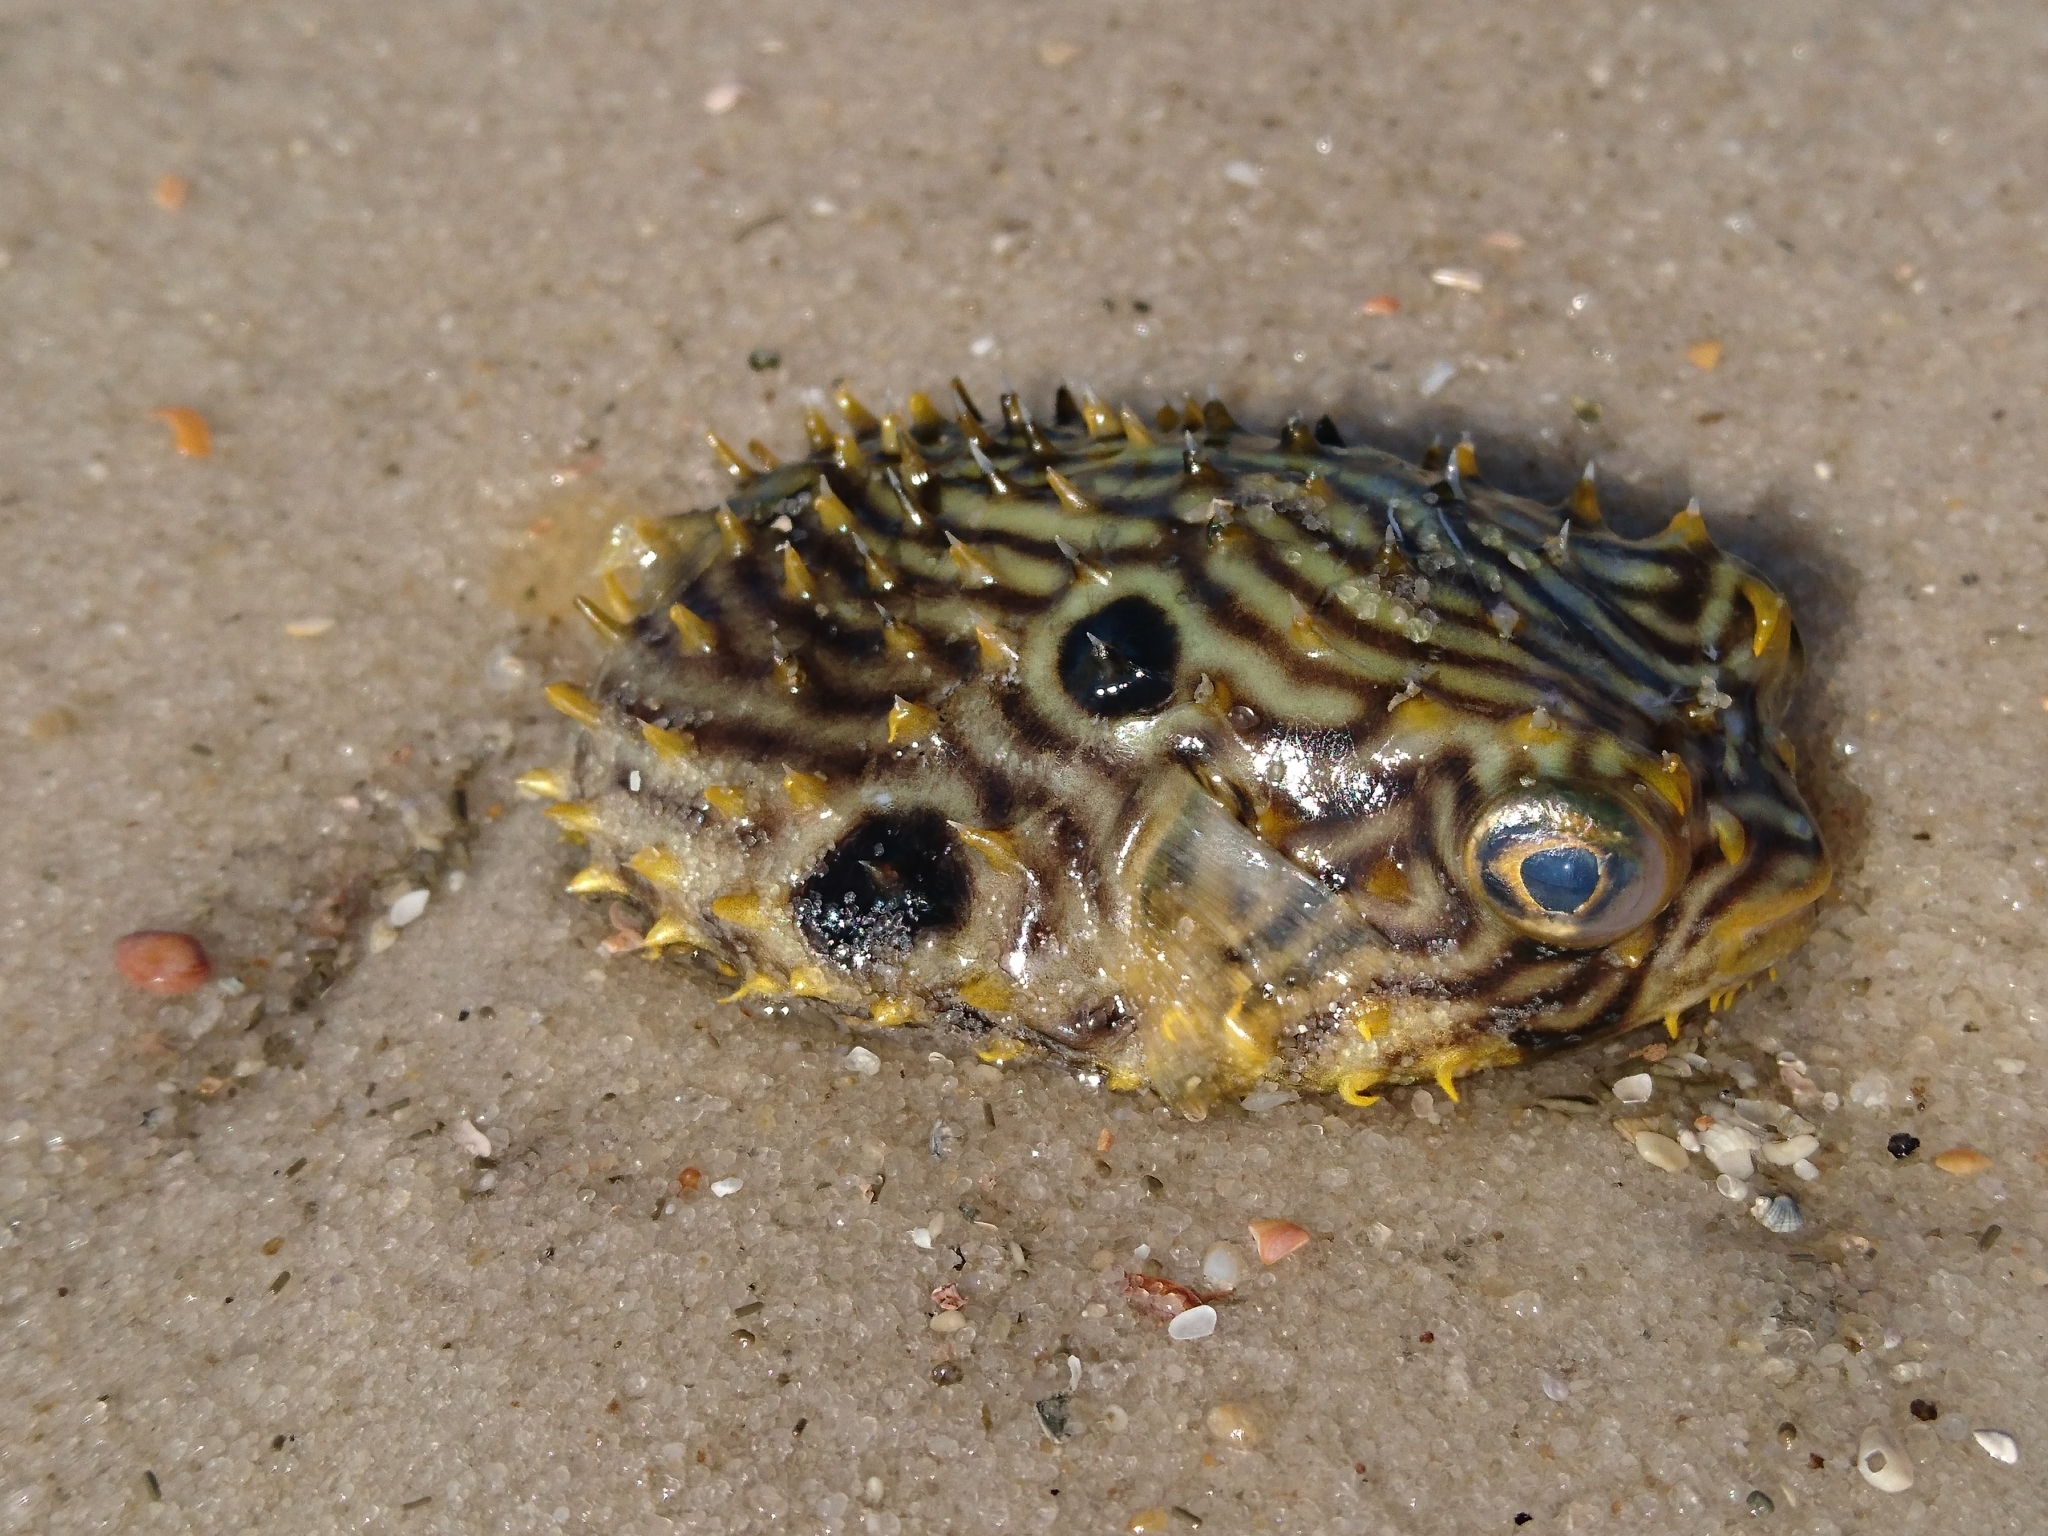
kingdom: Animalia
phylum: Chordata
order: Tetraodontiformes
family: Diodontidae
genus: Chilomycterus
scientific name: Chilomycterus schoepfii
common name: Striped burrfish
